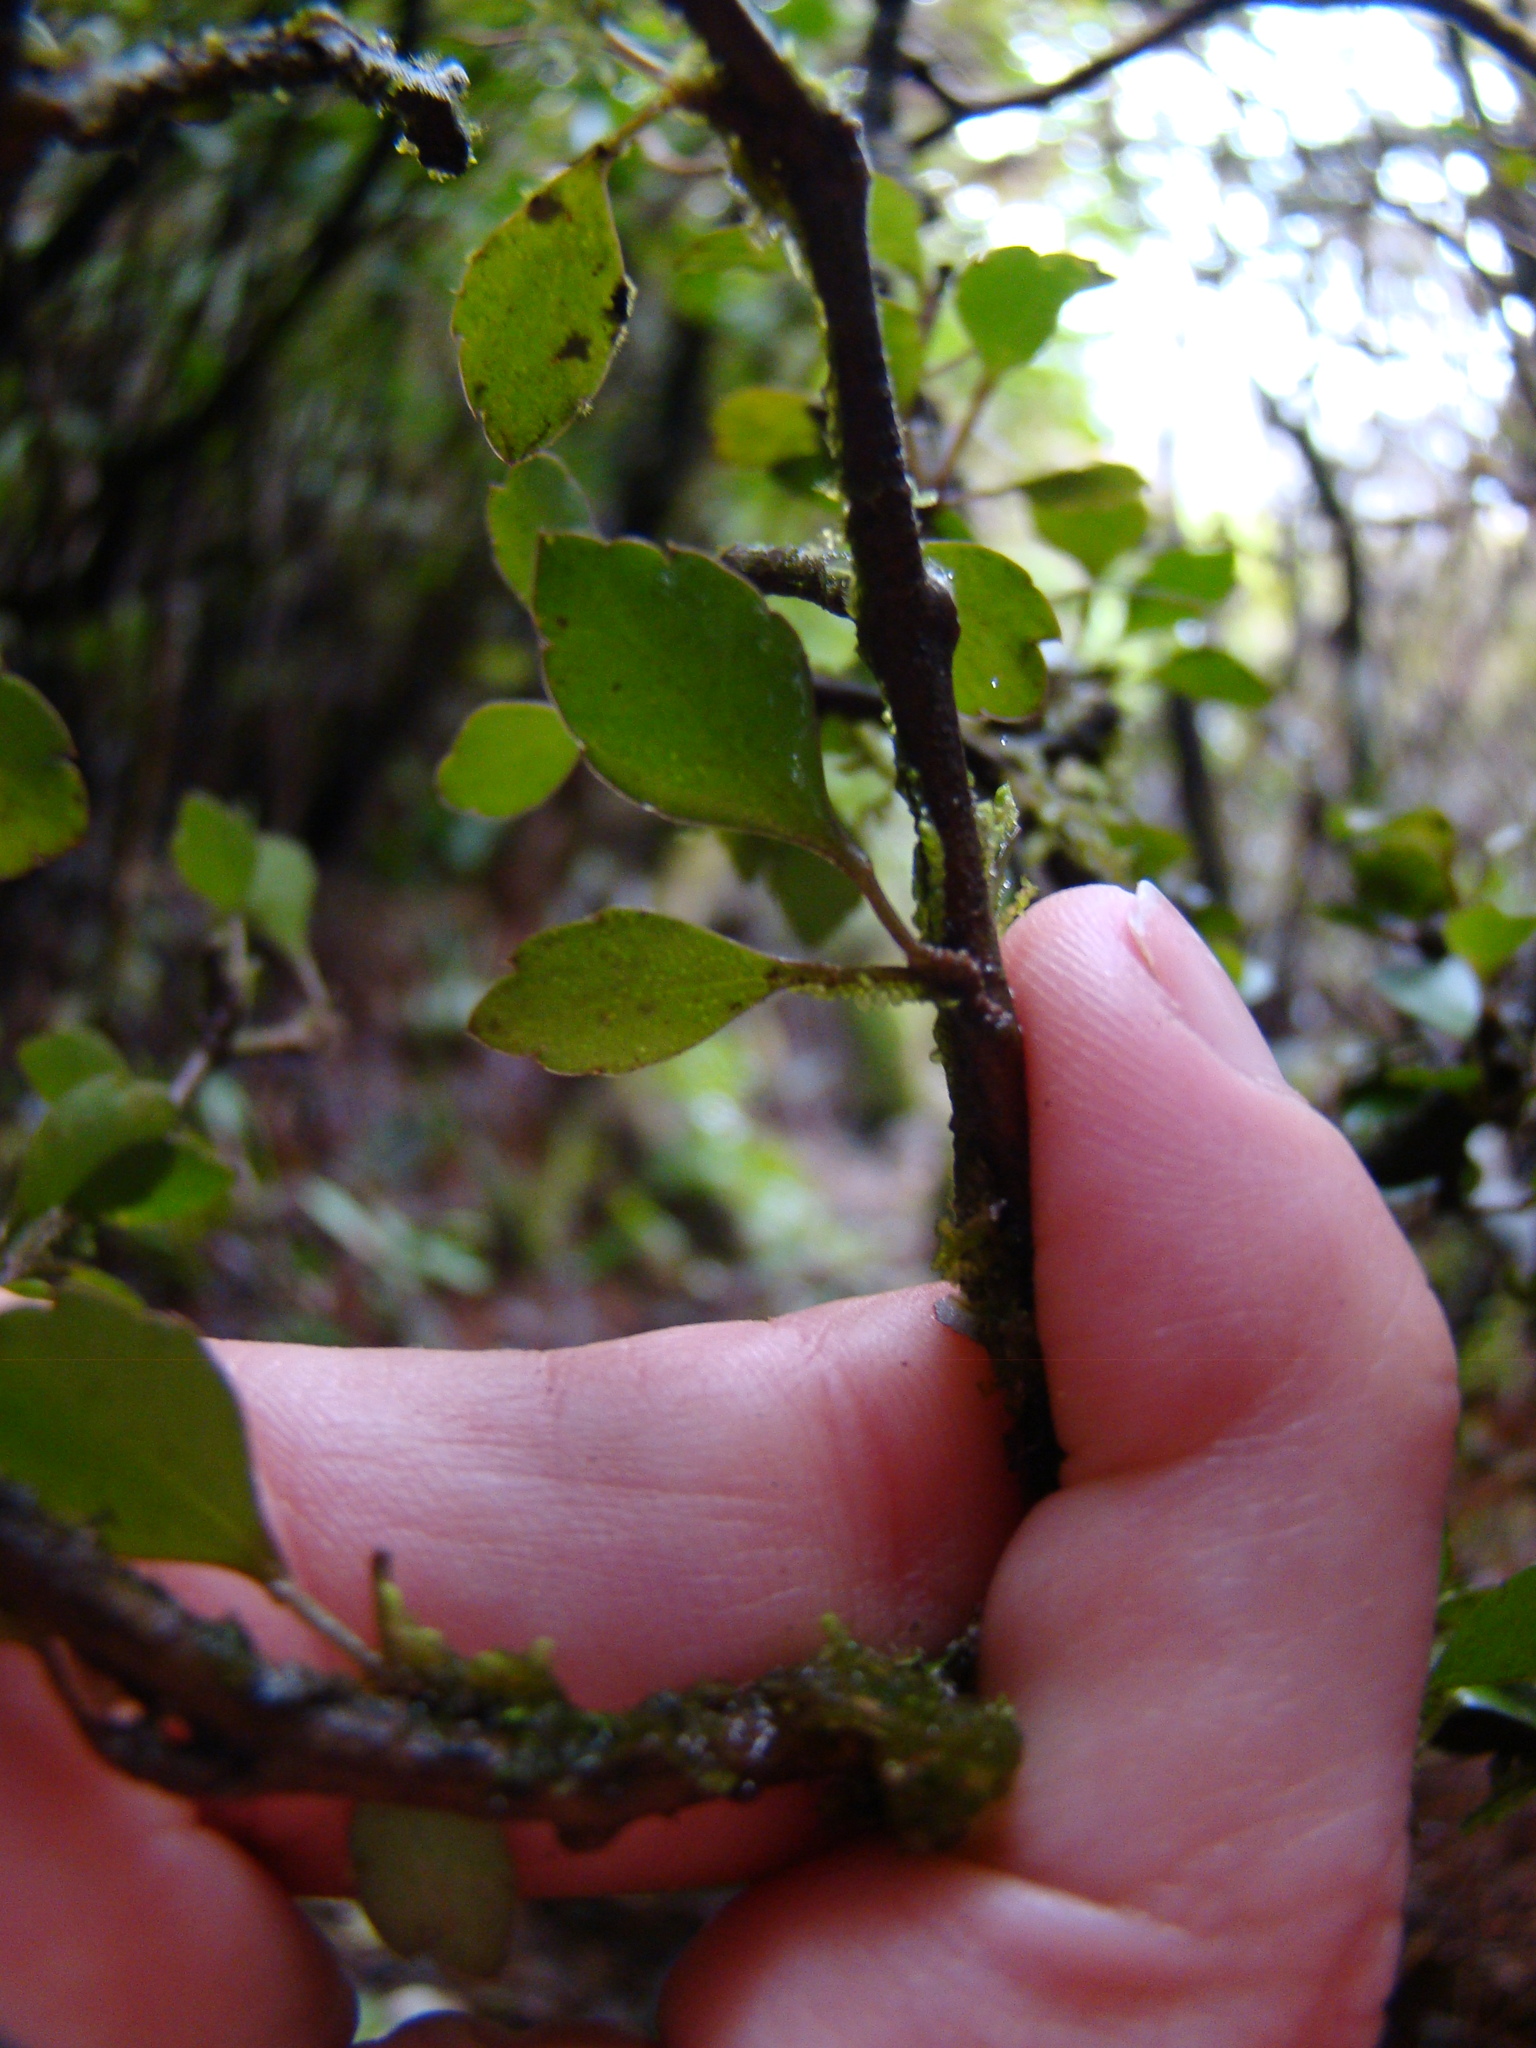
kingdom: Plantae
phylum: Tracheophyta
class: Magnoliopsida
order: Apiales
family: Araliaceae
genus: Raukaua
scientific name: Raukaua anomalus
